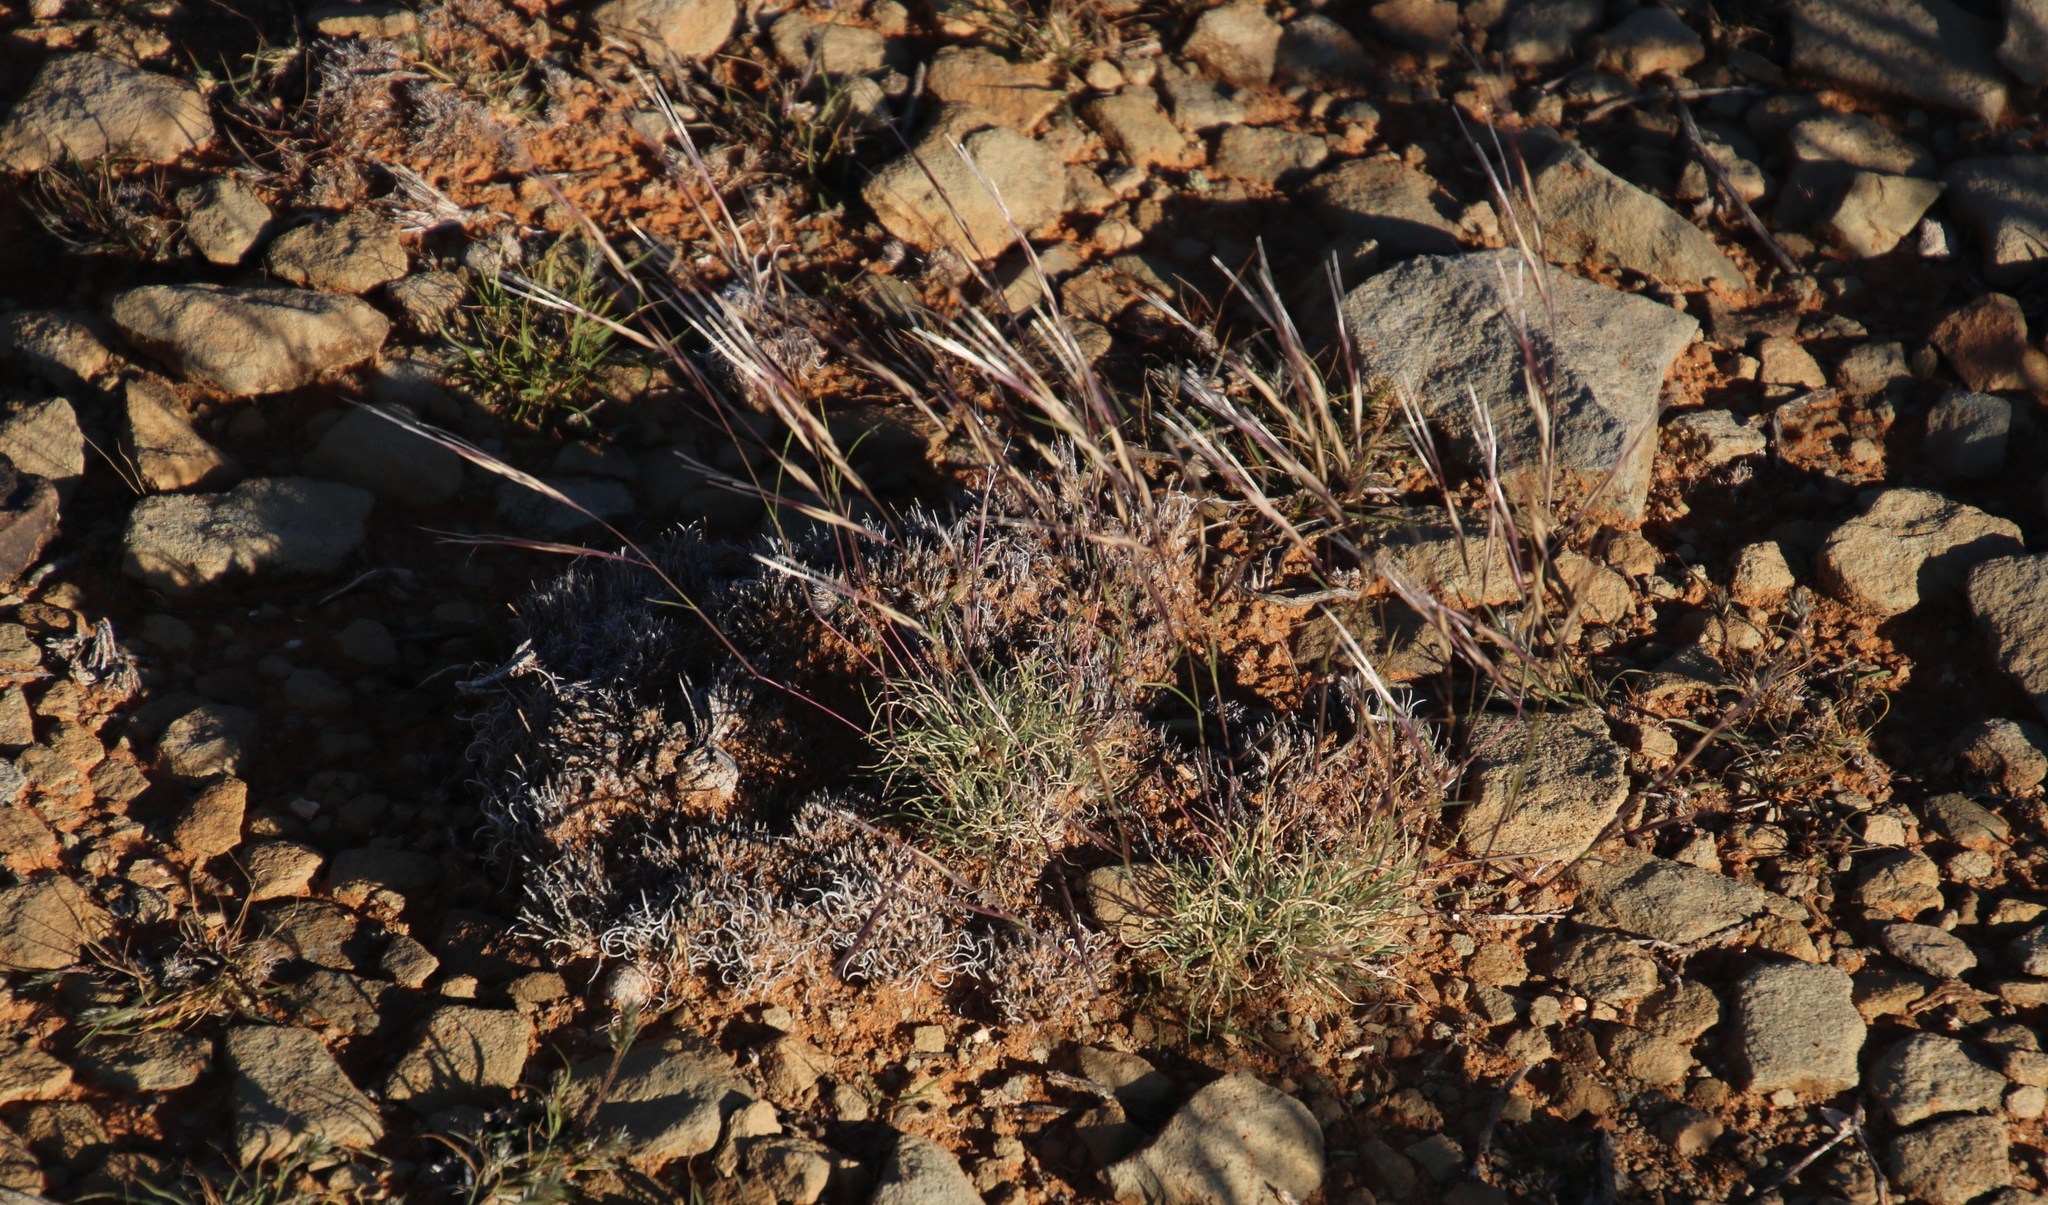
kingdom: Plantae
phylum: Tracheophyta
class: Liliopsida
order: Poales
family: Poaceae
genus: Stipagrostis
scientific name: Stipagrostis obtusa
